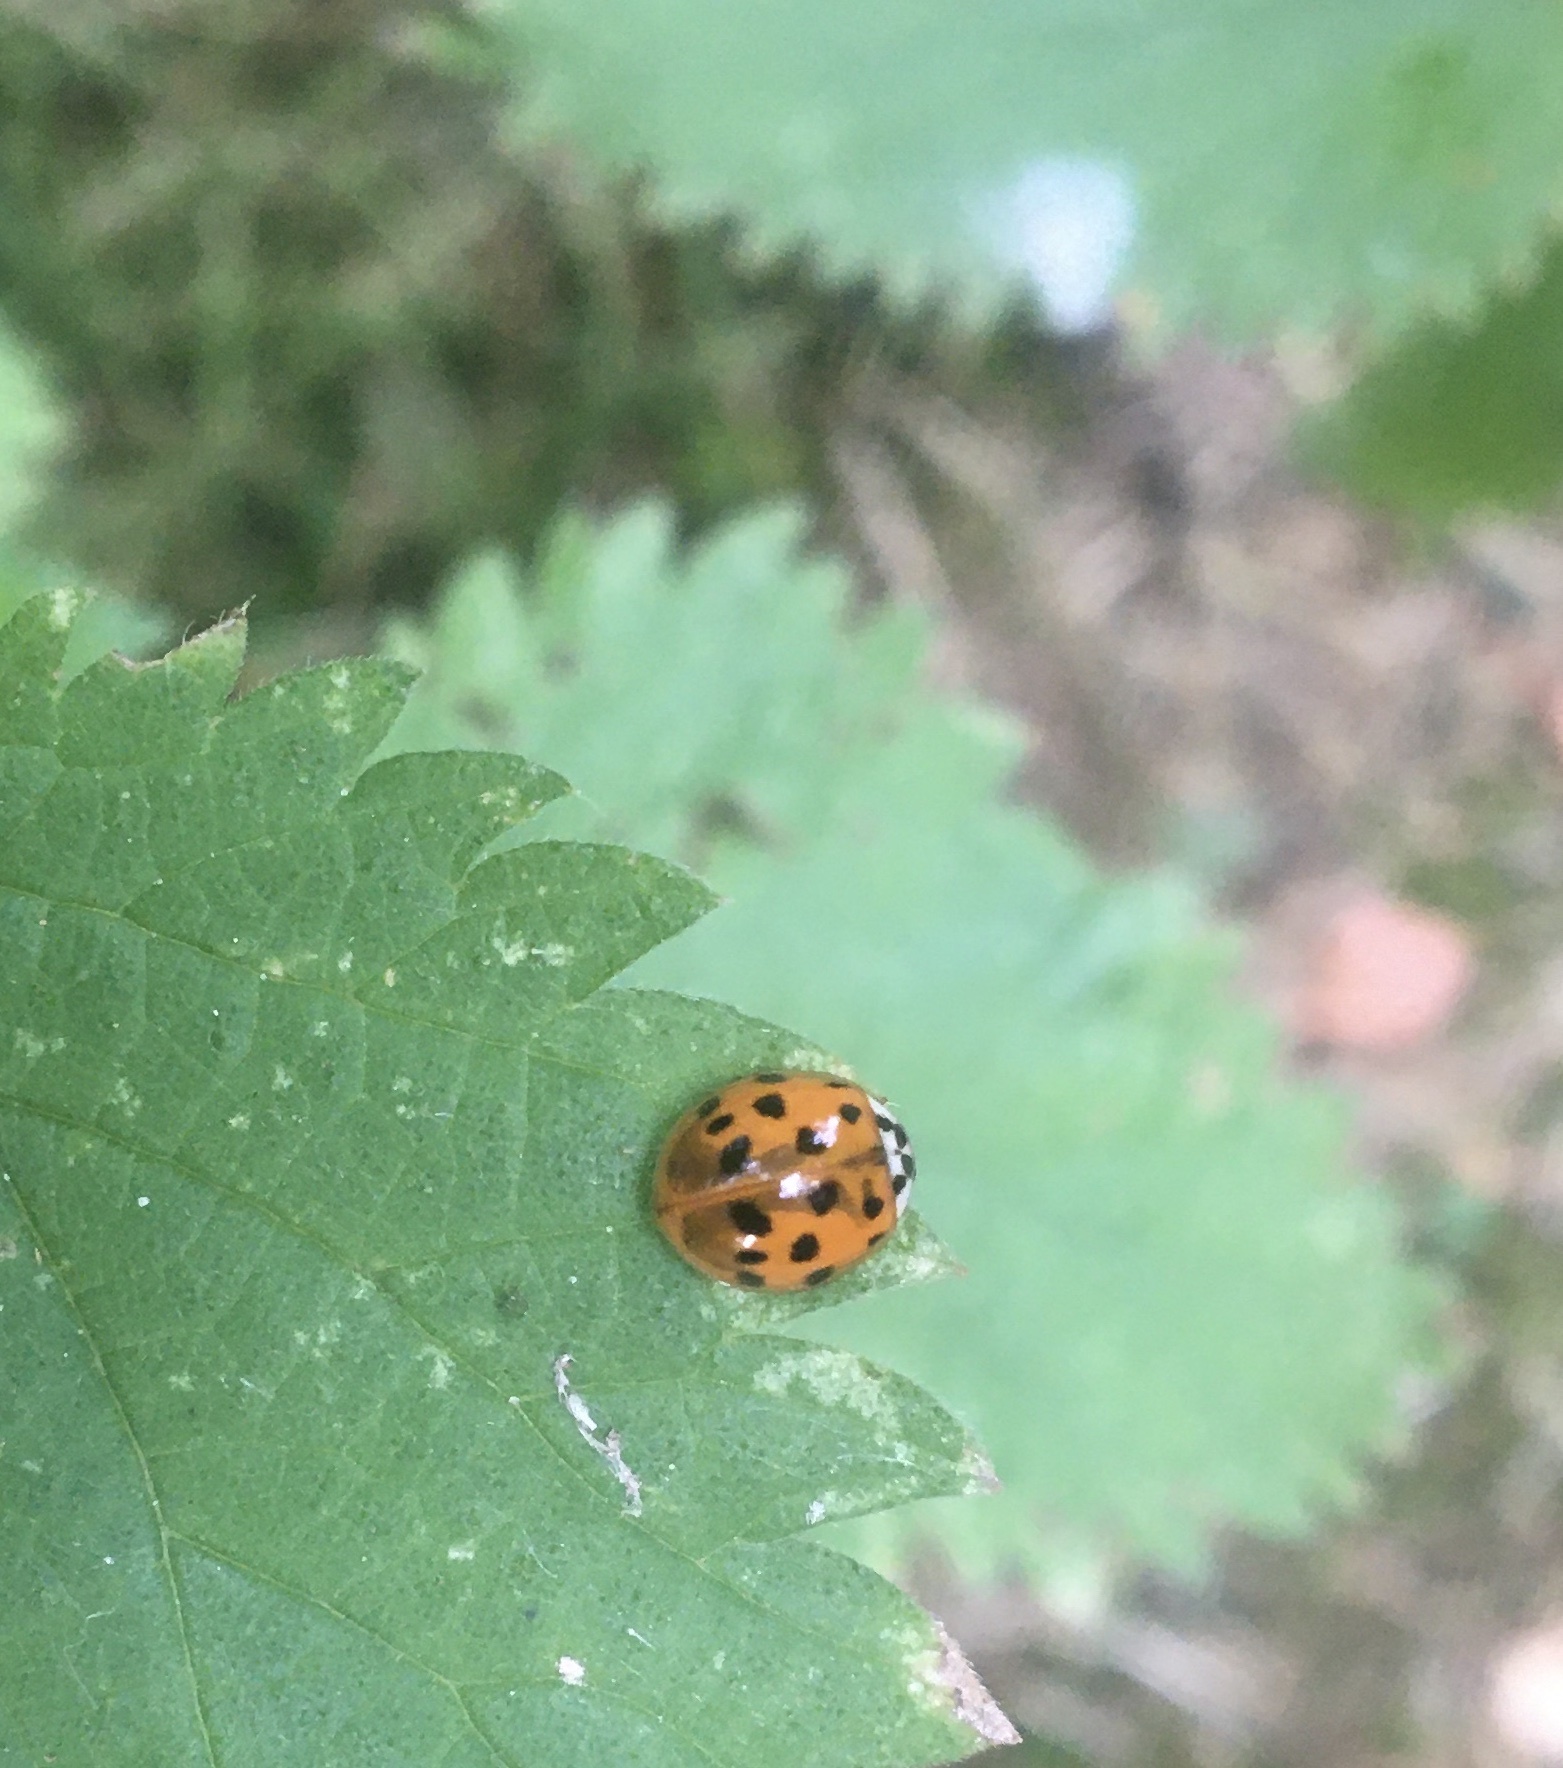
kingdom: Animalia
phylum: Arthropoda
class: Insecta
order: Coleoptera
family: Coccinellidae
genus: Harmonia
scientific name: Harmonia axyridis
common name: Harlequin ladybird
